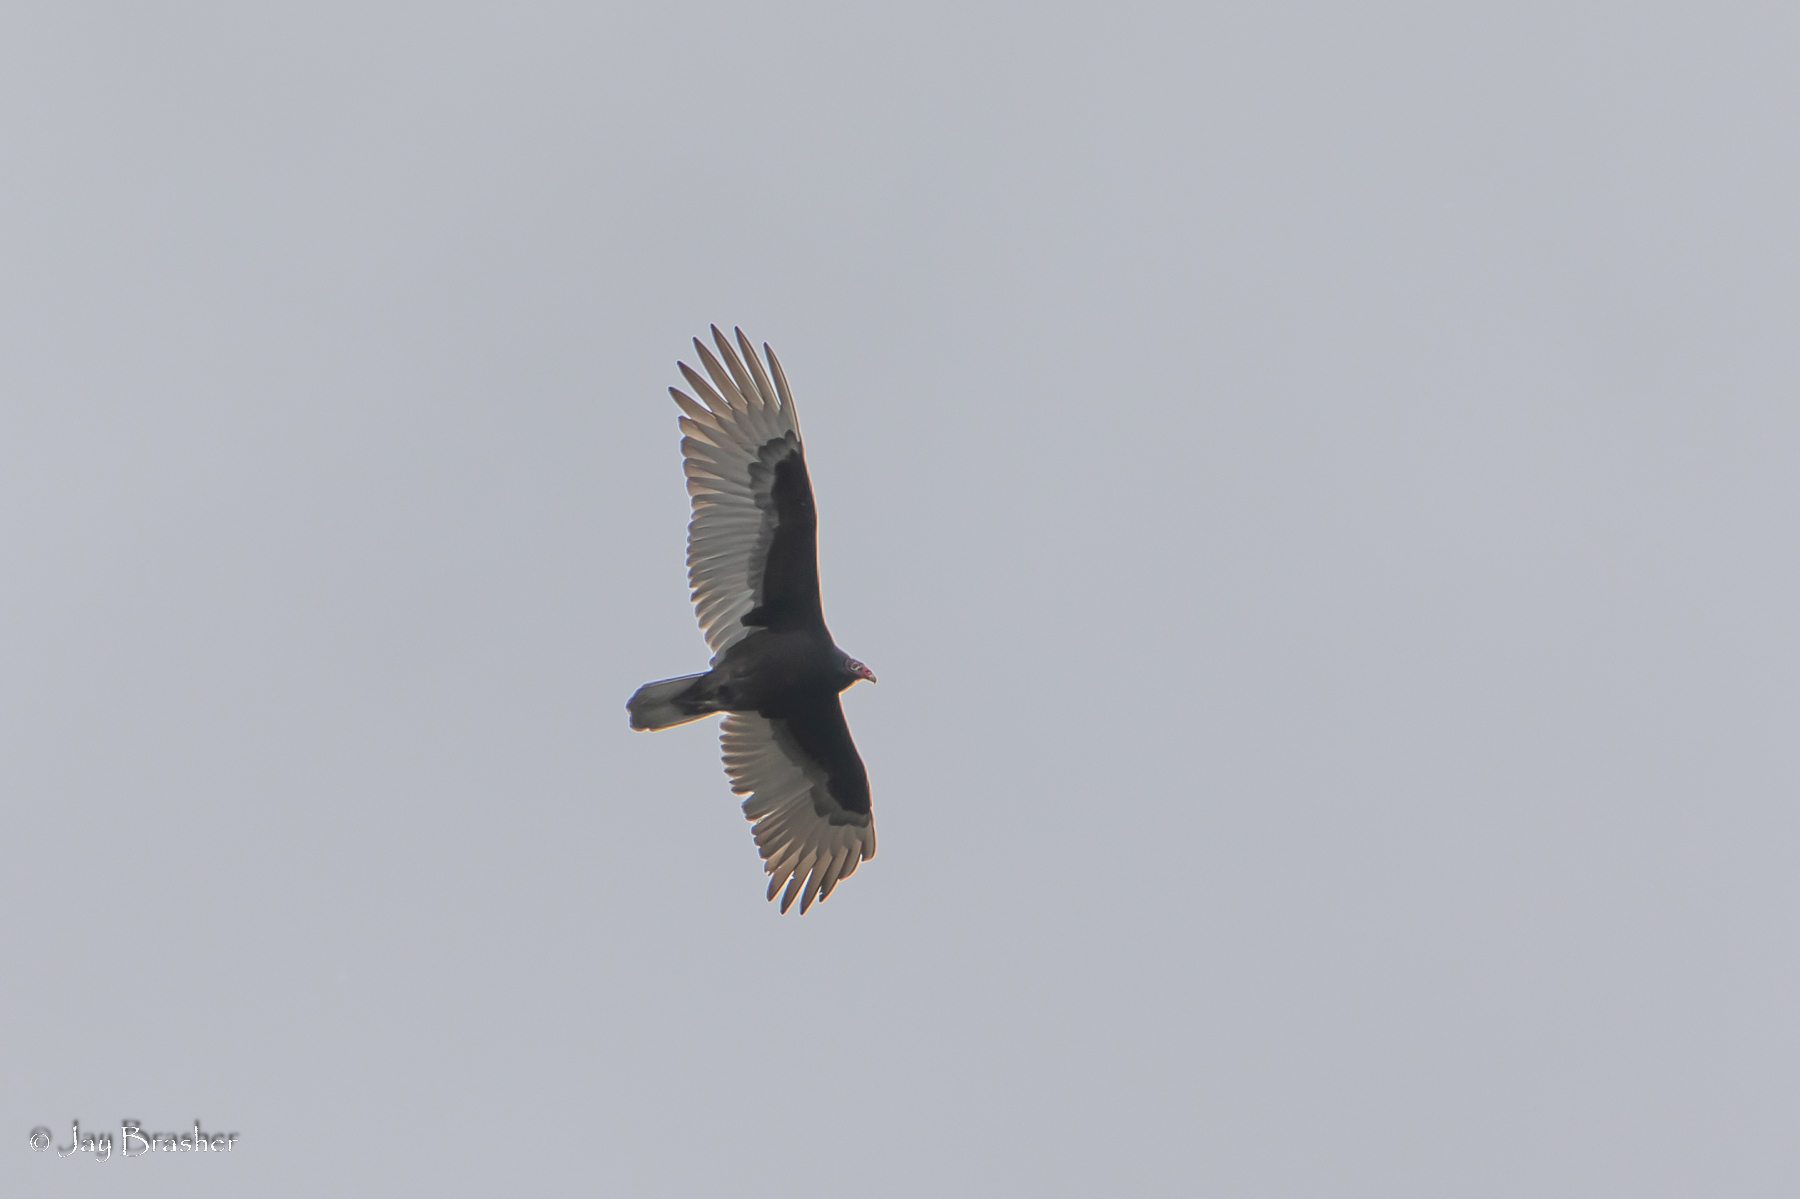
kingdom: Animalia
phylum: Chordata
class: Aves
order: Accipitriformes
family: Cathartidae
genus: Cathartes
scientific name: Cathartes aura
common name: Turkey vulture
